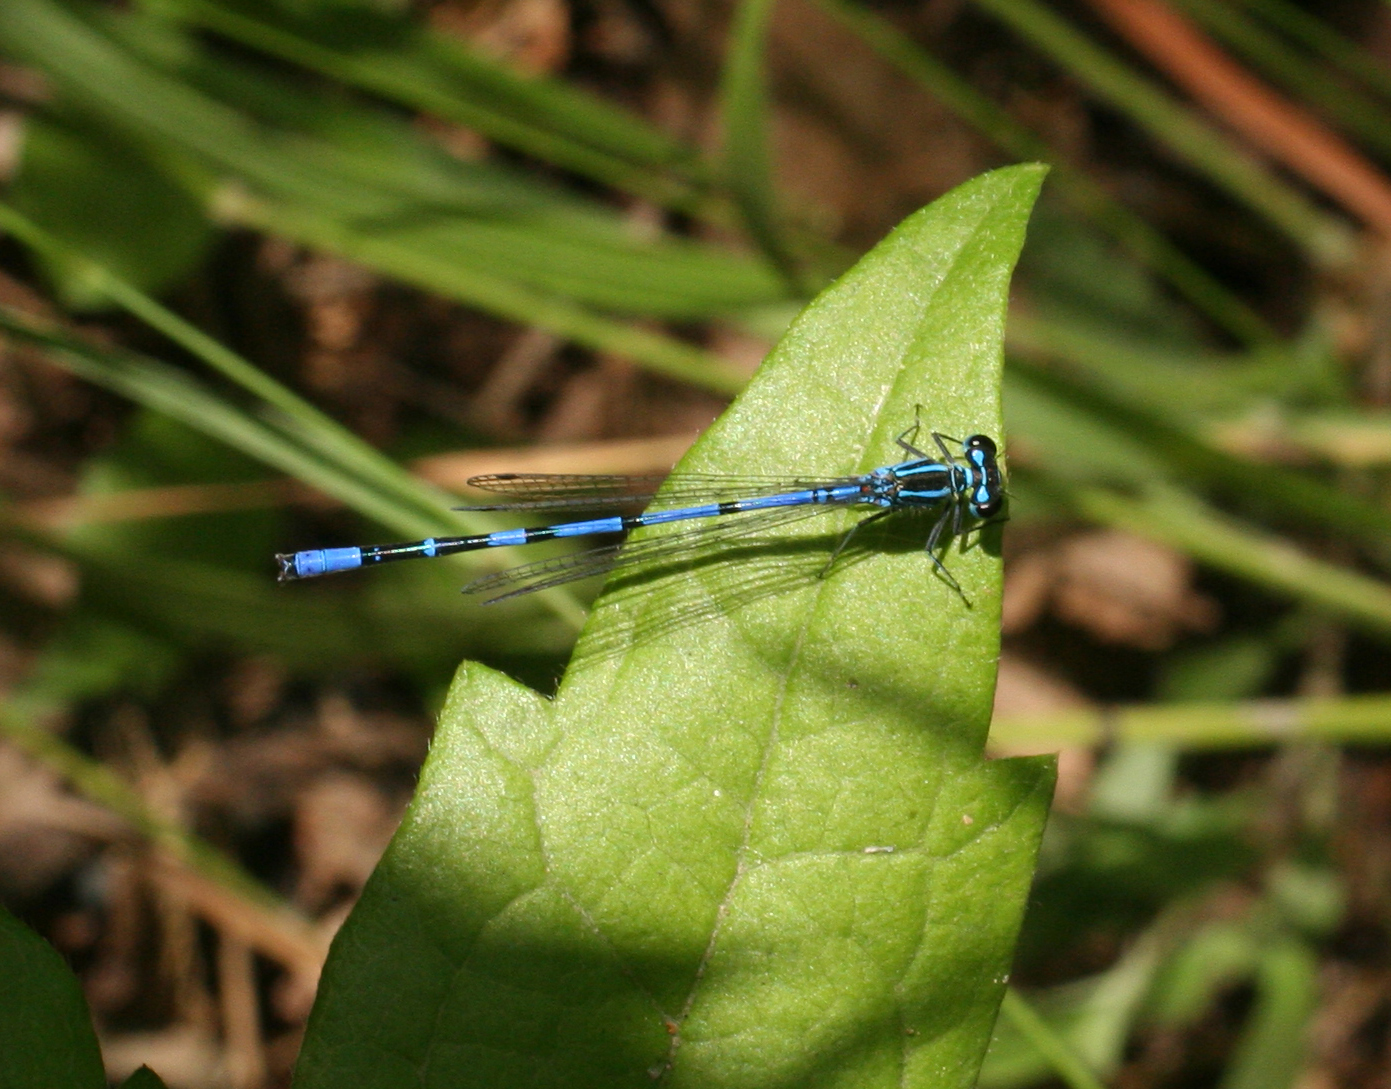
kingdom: Animalia
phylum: Arthropoda
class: Insecta
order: Odonata
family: Coenagrionidae
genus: Coenagrion
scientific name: Coenagrion australocaspicum
